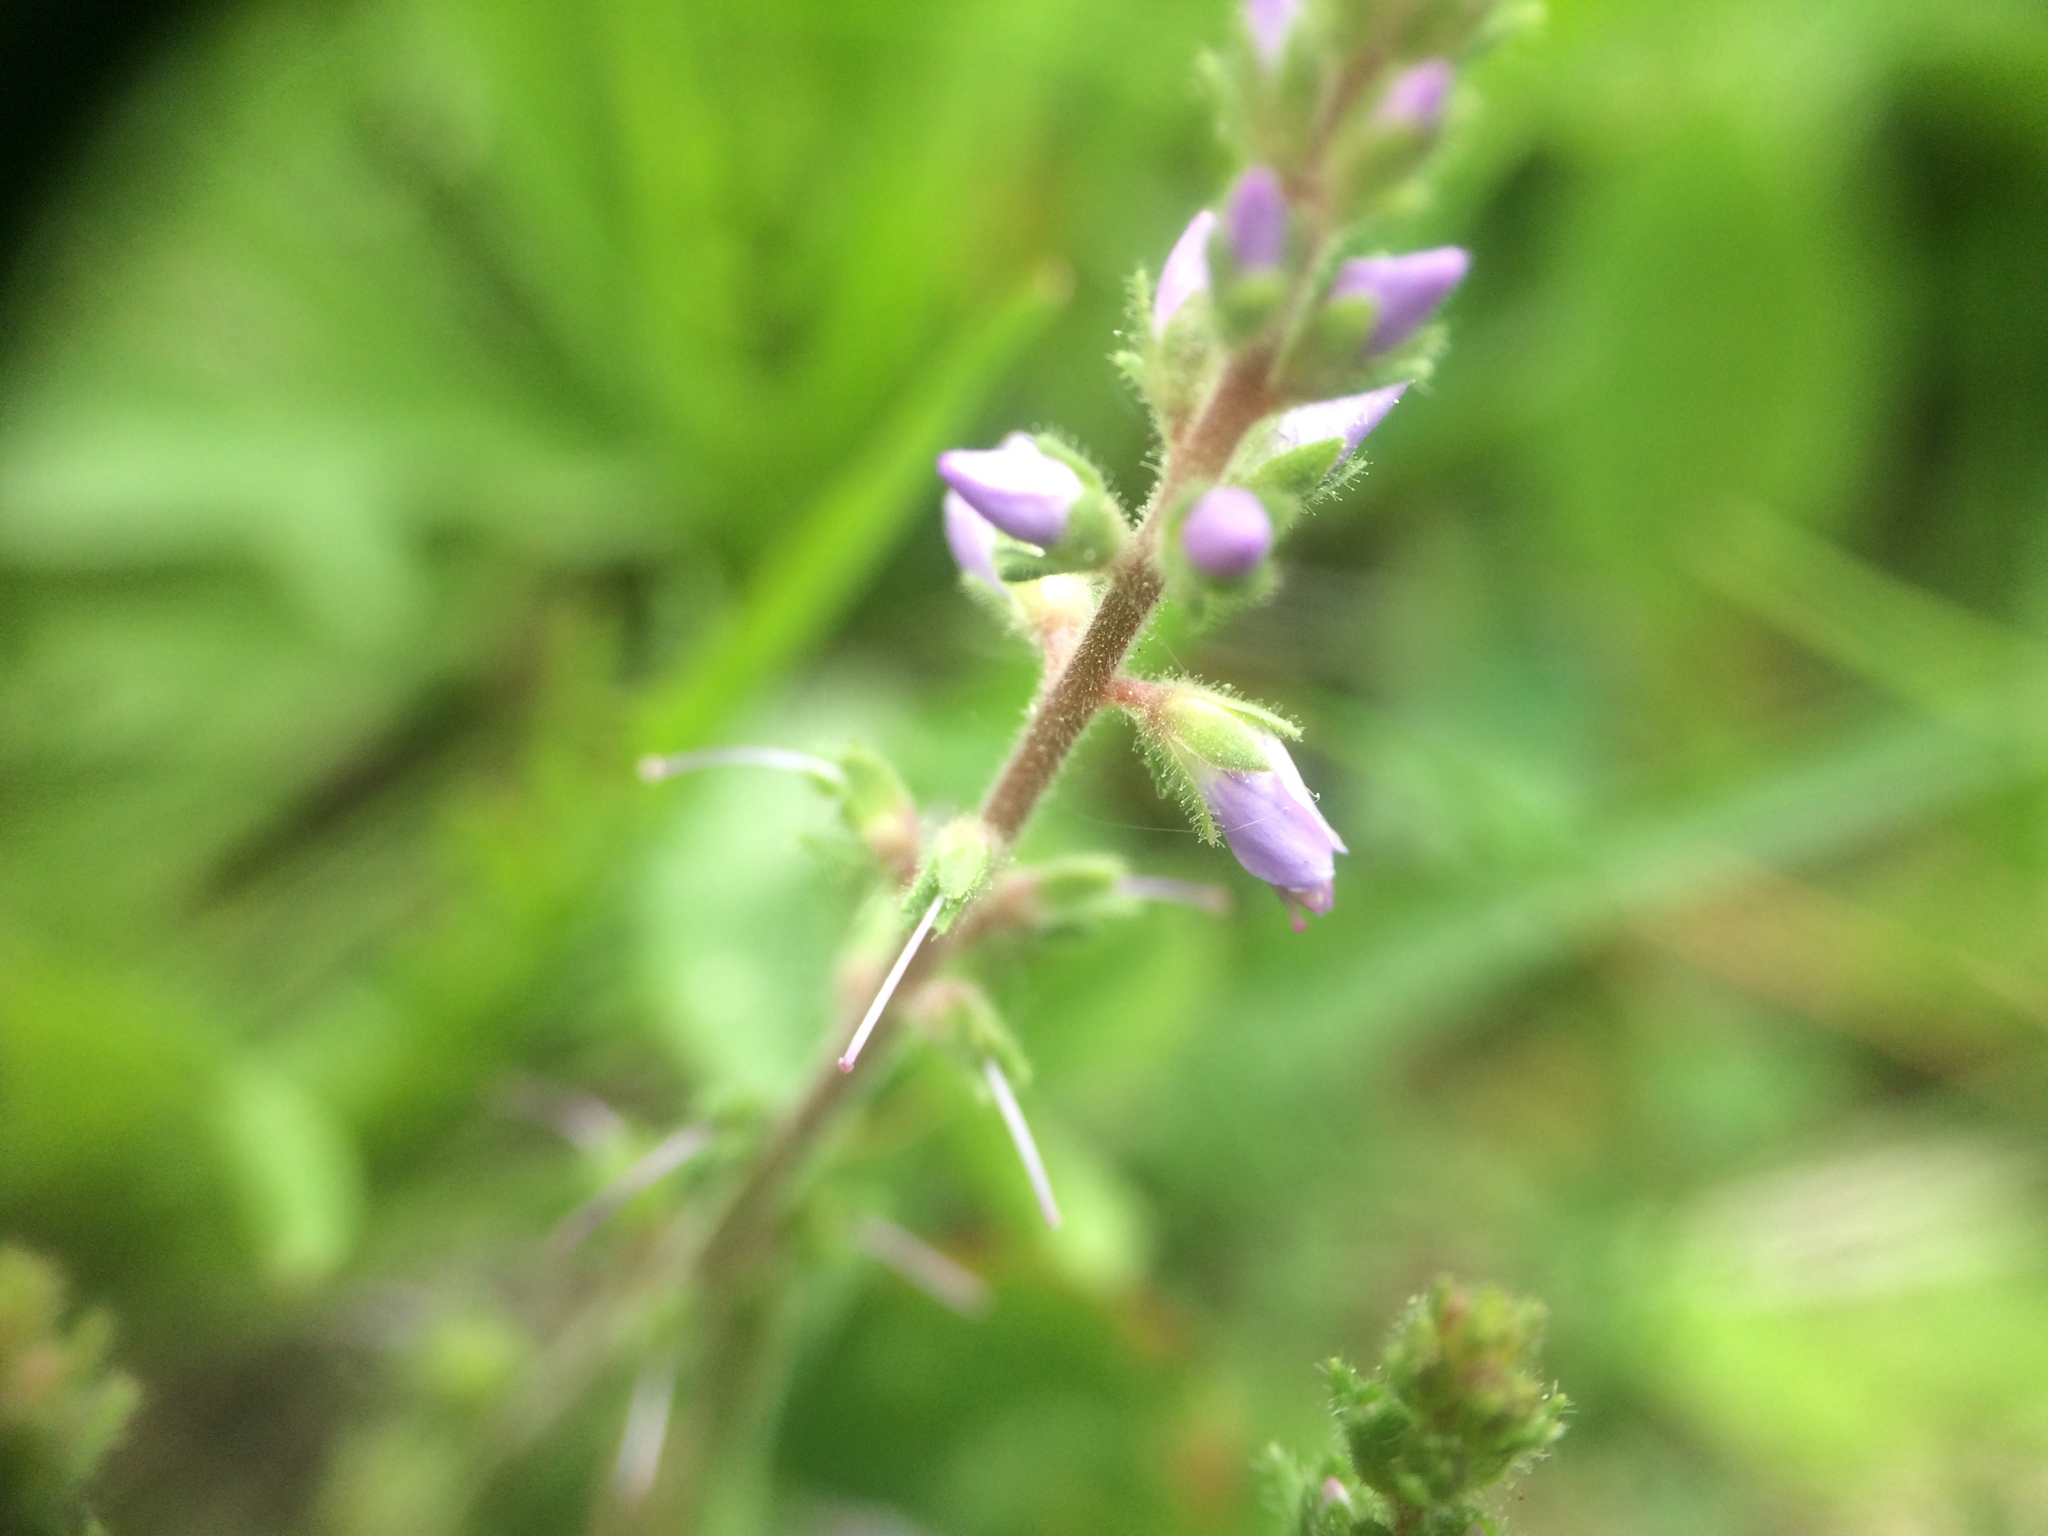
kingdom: Plantae
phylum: Tracheophyta
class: Magnoliopsida
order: Lamiales
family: Plantaginaceae
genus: Veronica
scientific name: Veronica officinalis
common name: Common speedwell
